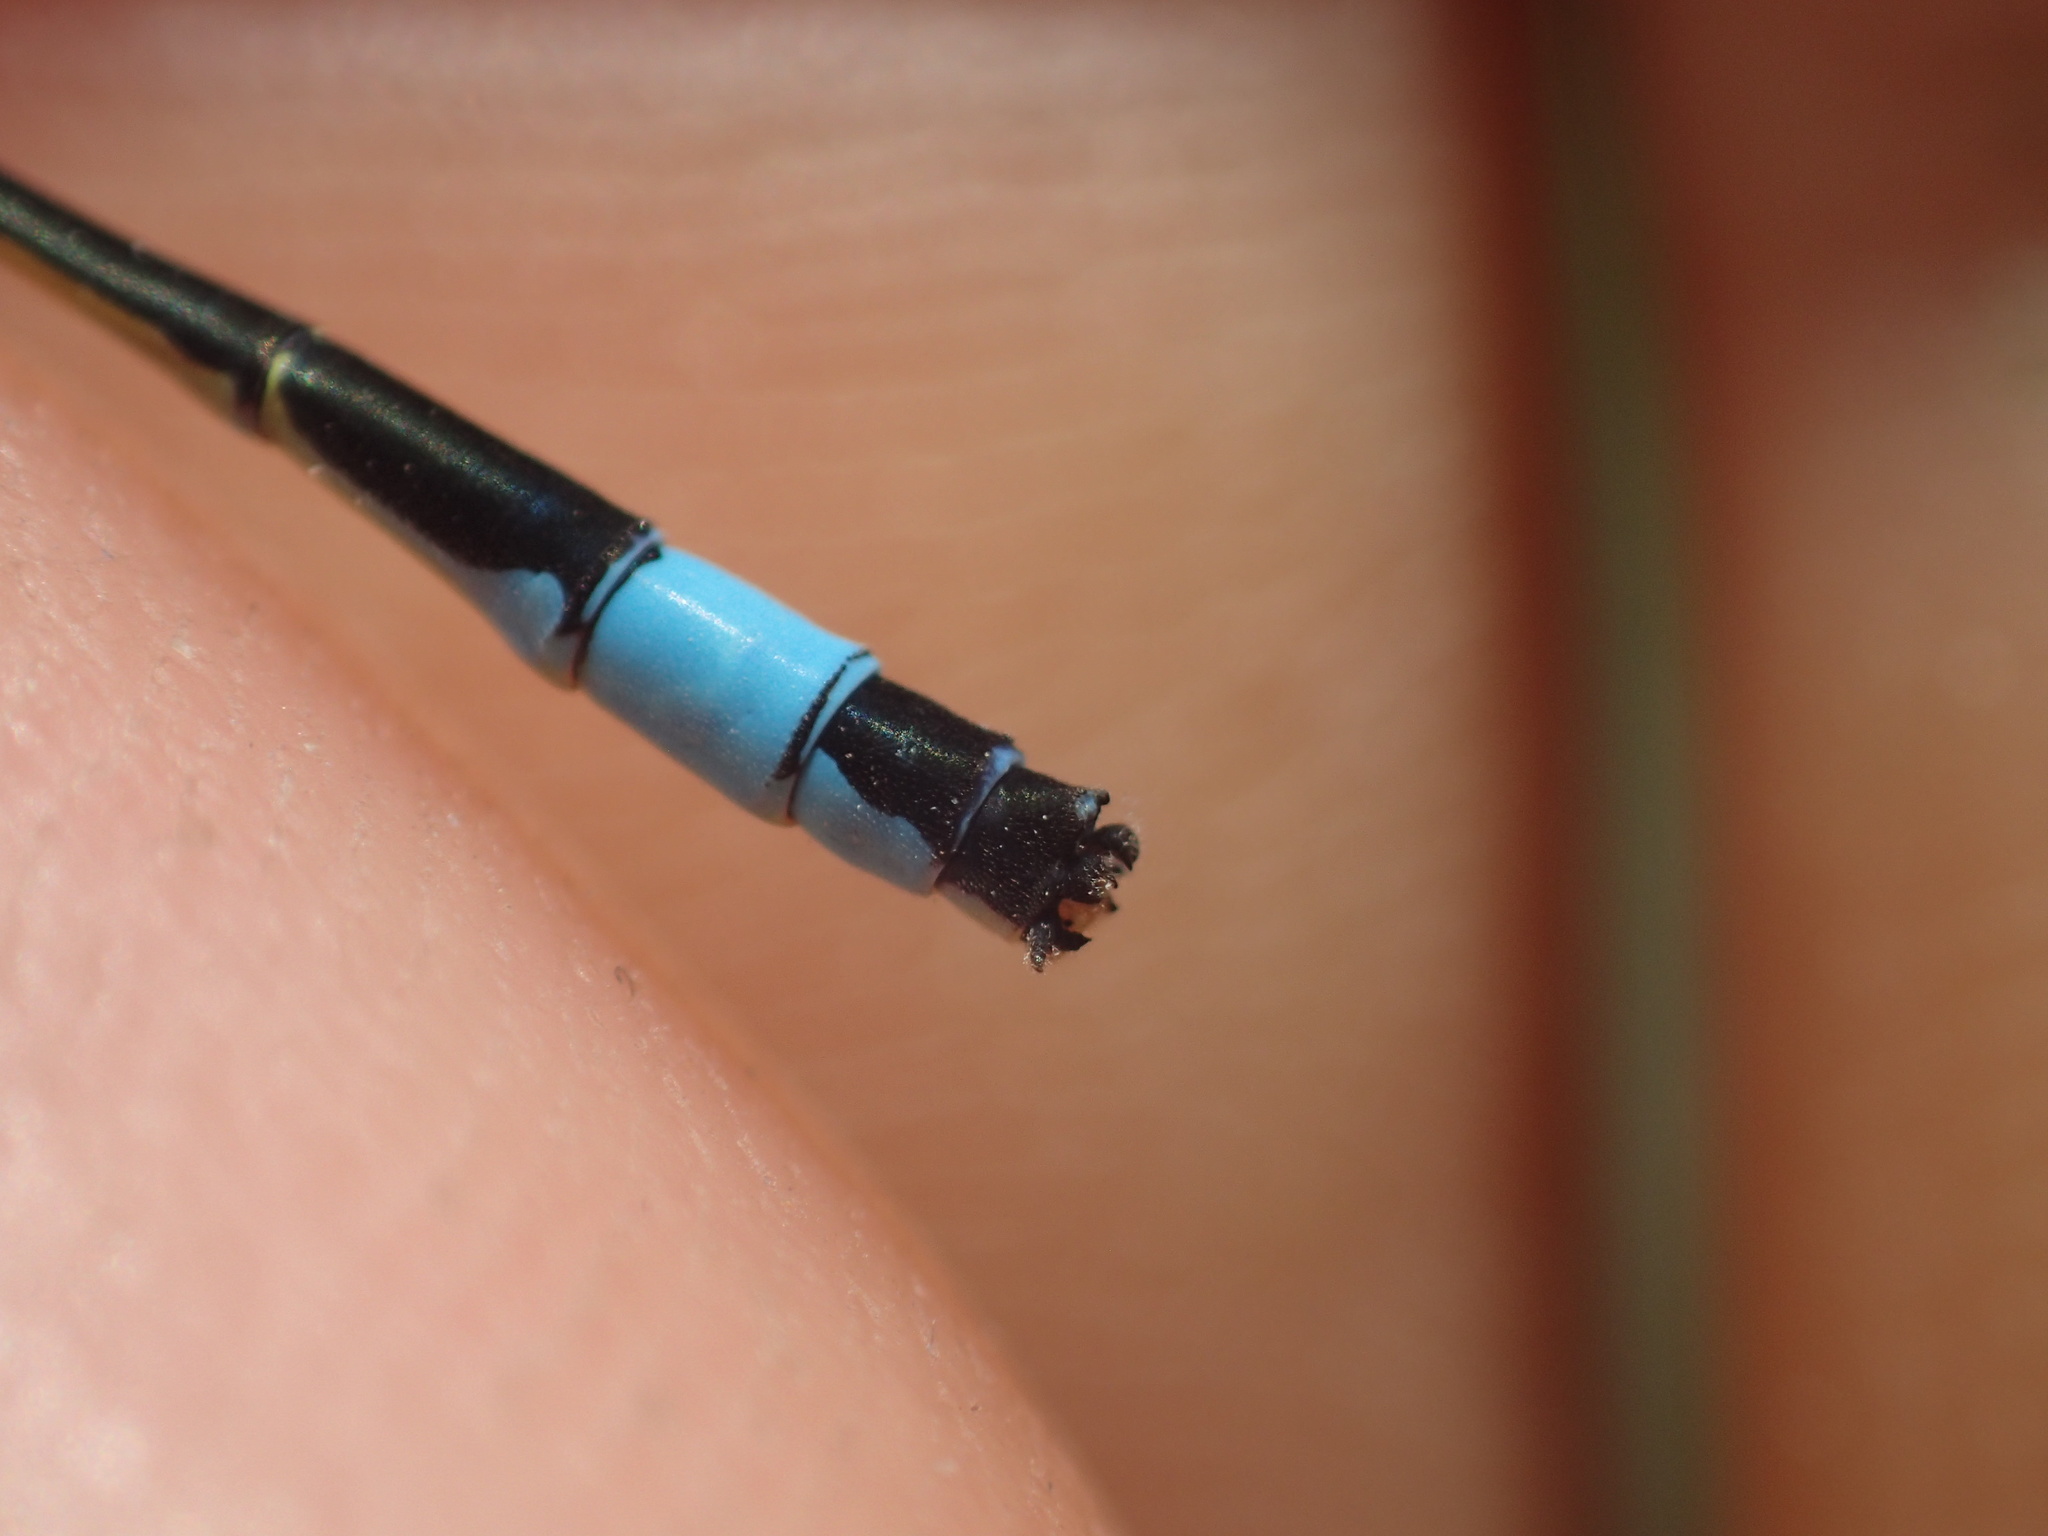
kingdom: Animalia
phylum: Arthropoda
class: Insecta
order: Odonata
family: Coenagrionidae
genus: Ischnura
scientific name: Ischnura elegans
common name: Blue-tailed damselfly
